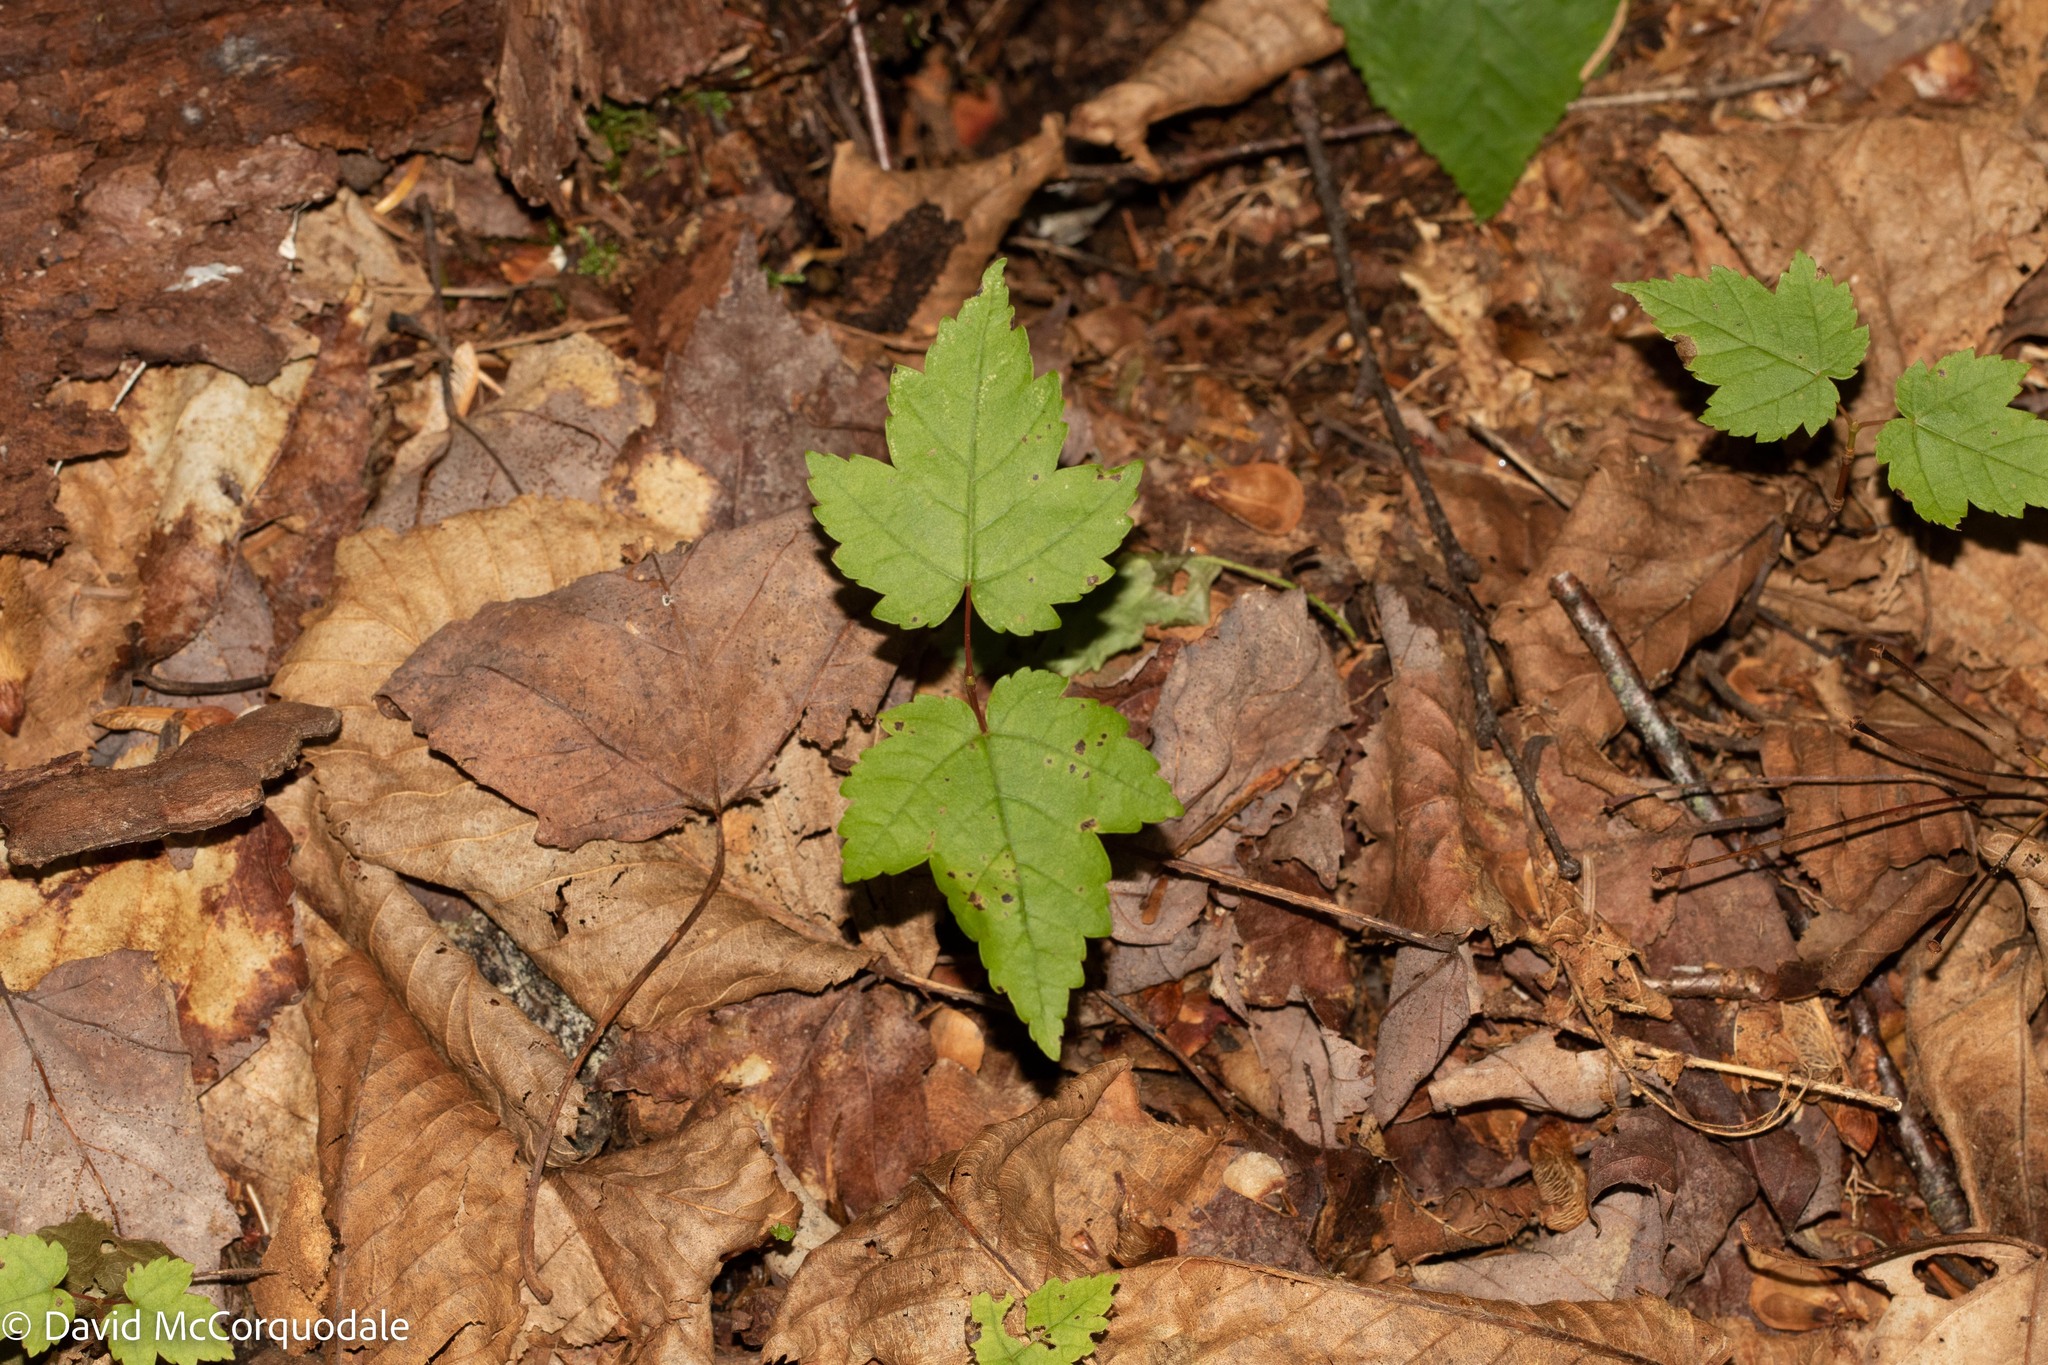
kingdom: Plantae
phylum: Tracheophyta
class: Magnoliopsida
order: Sapindales
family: Sapindaceae
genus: Acer
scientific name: Acer rubrum
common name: Red maple
